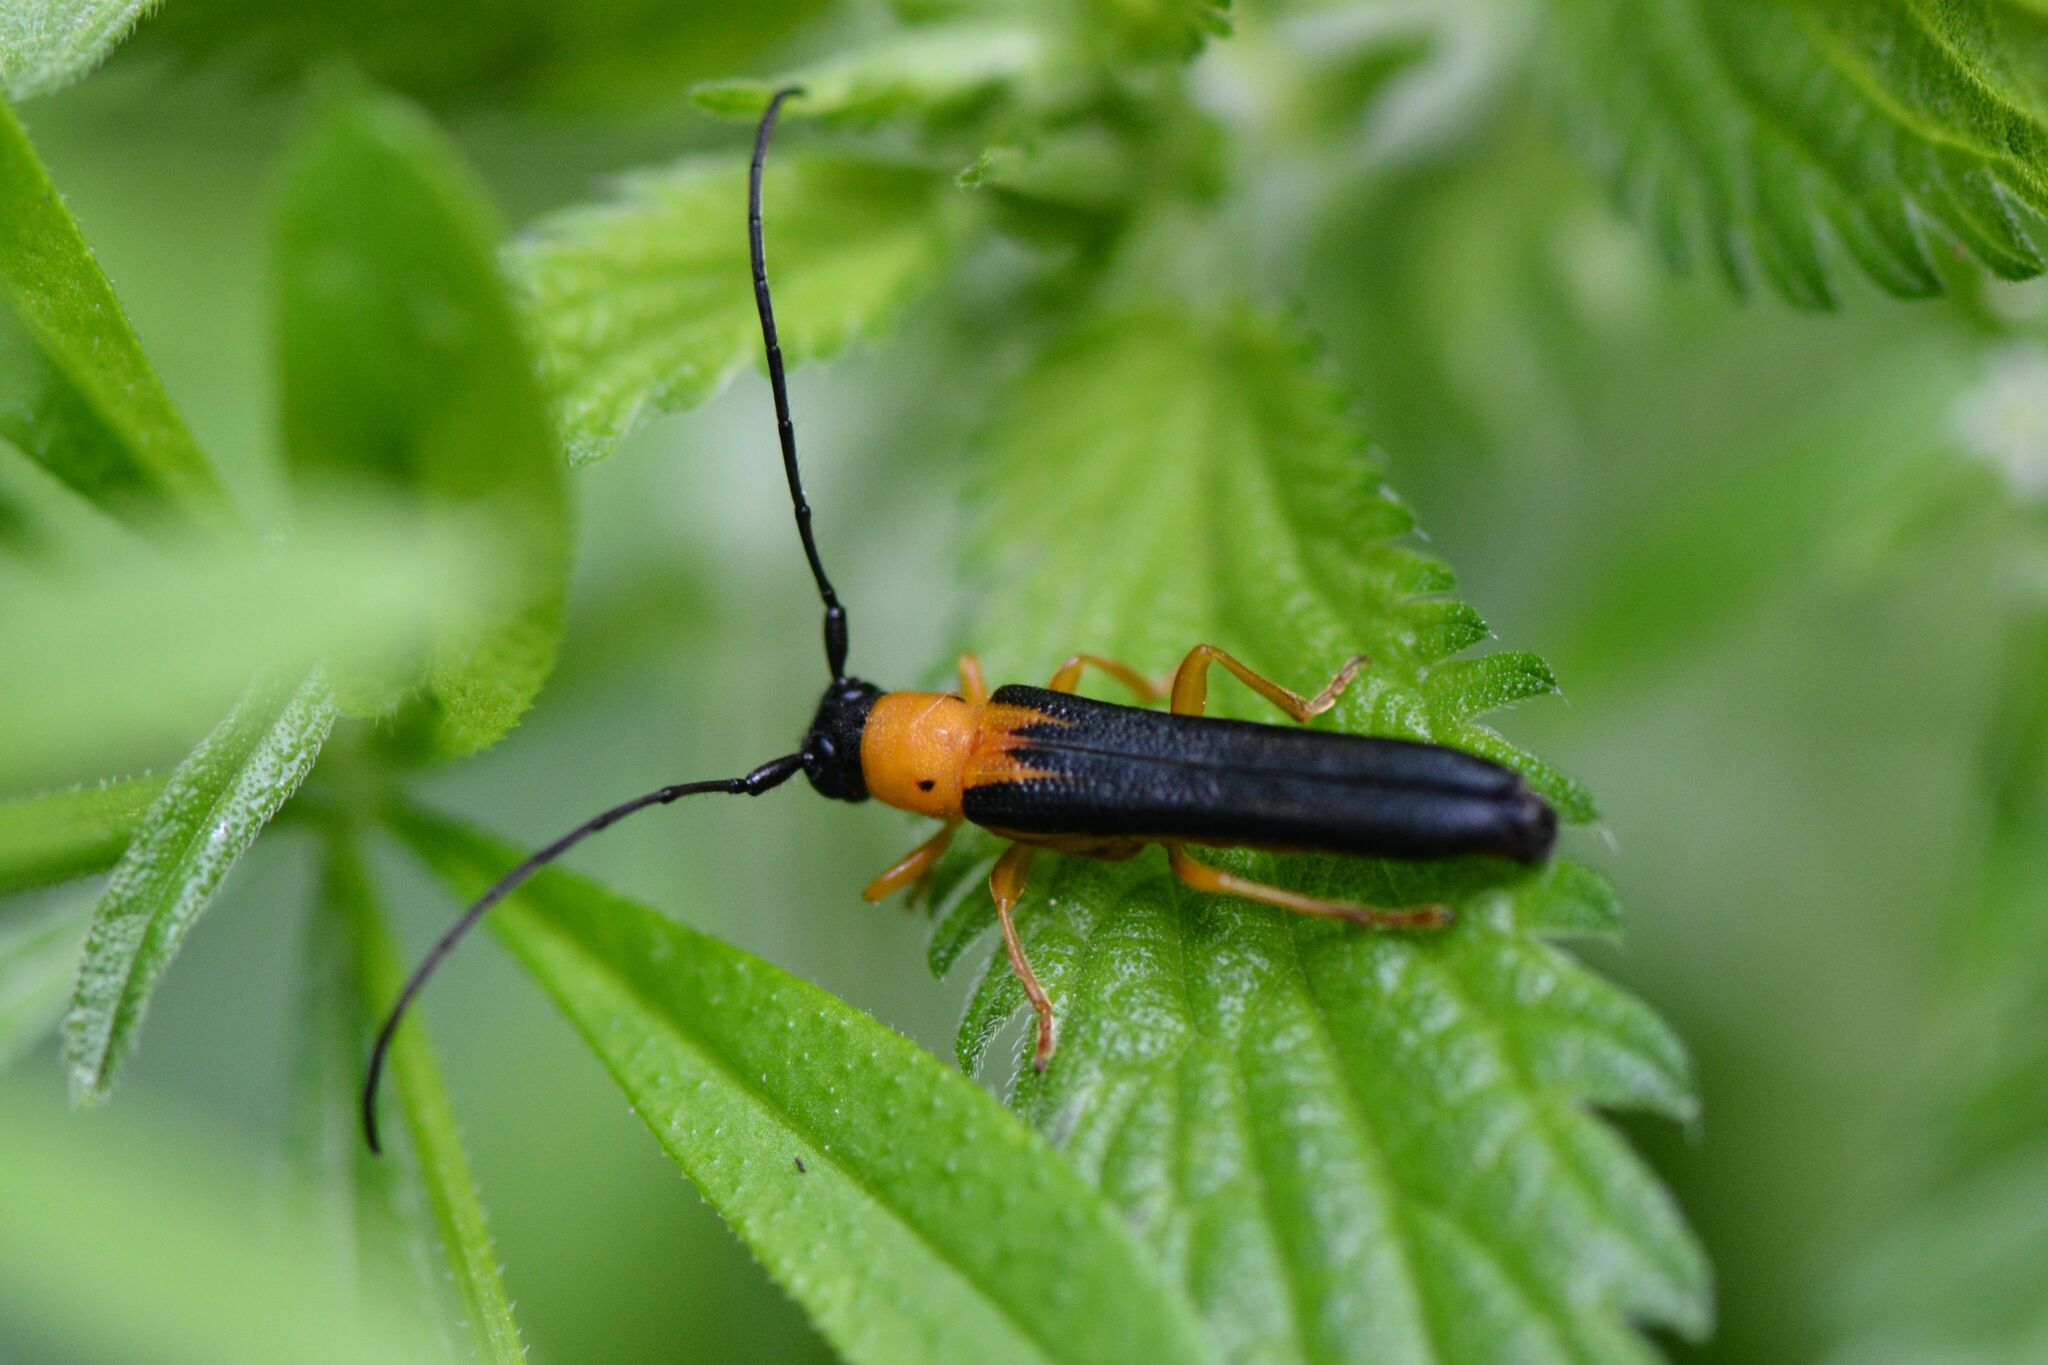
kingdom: Animalia
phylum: Arthropoda
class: Insecta
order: Coleoptera
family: Cerambycidae
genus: Oberea
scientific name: Oberea pupillata
